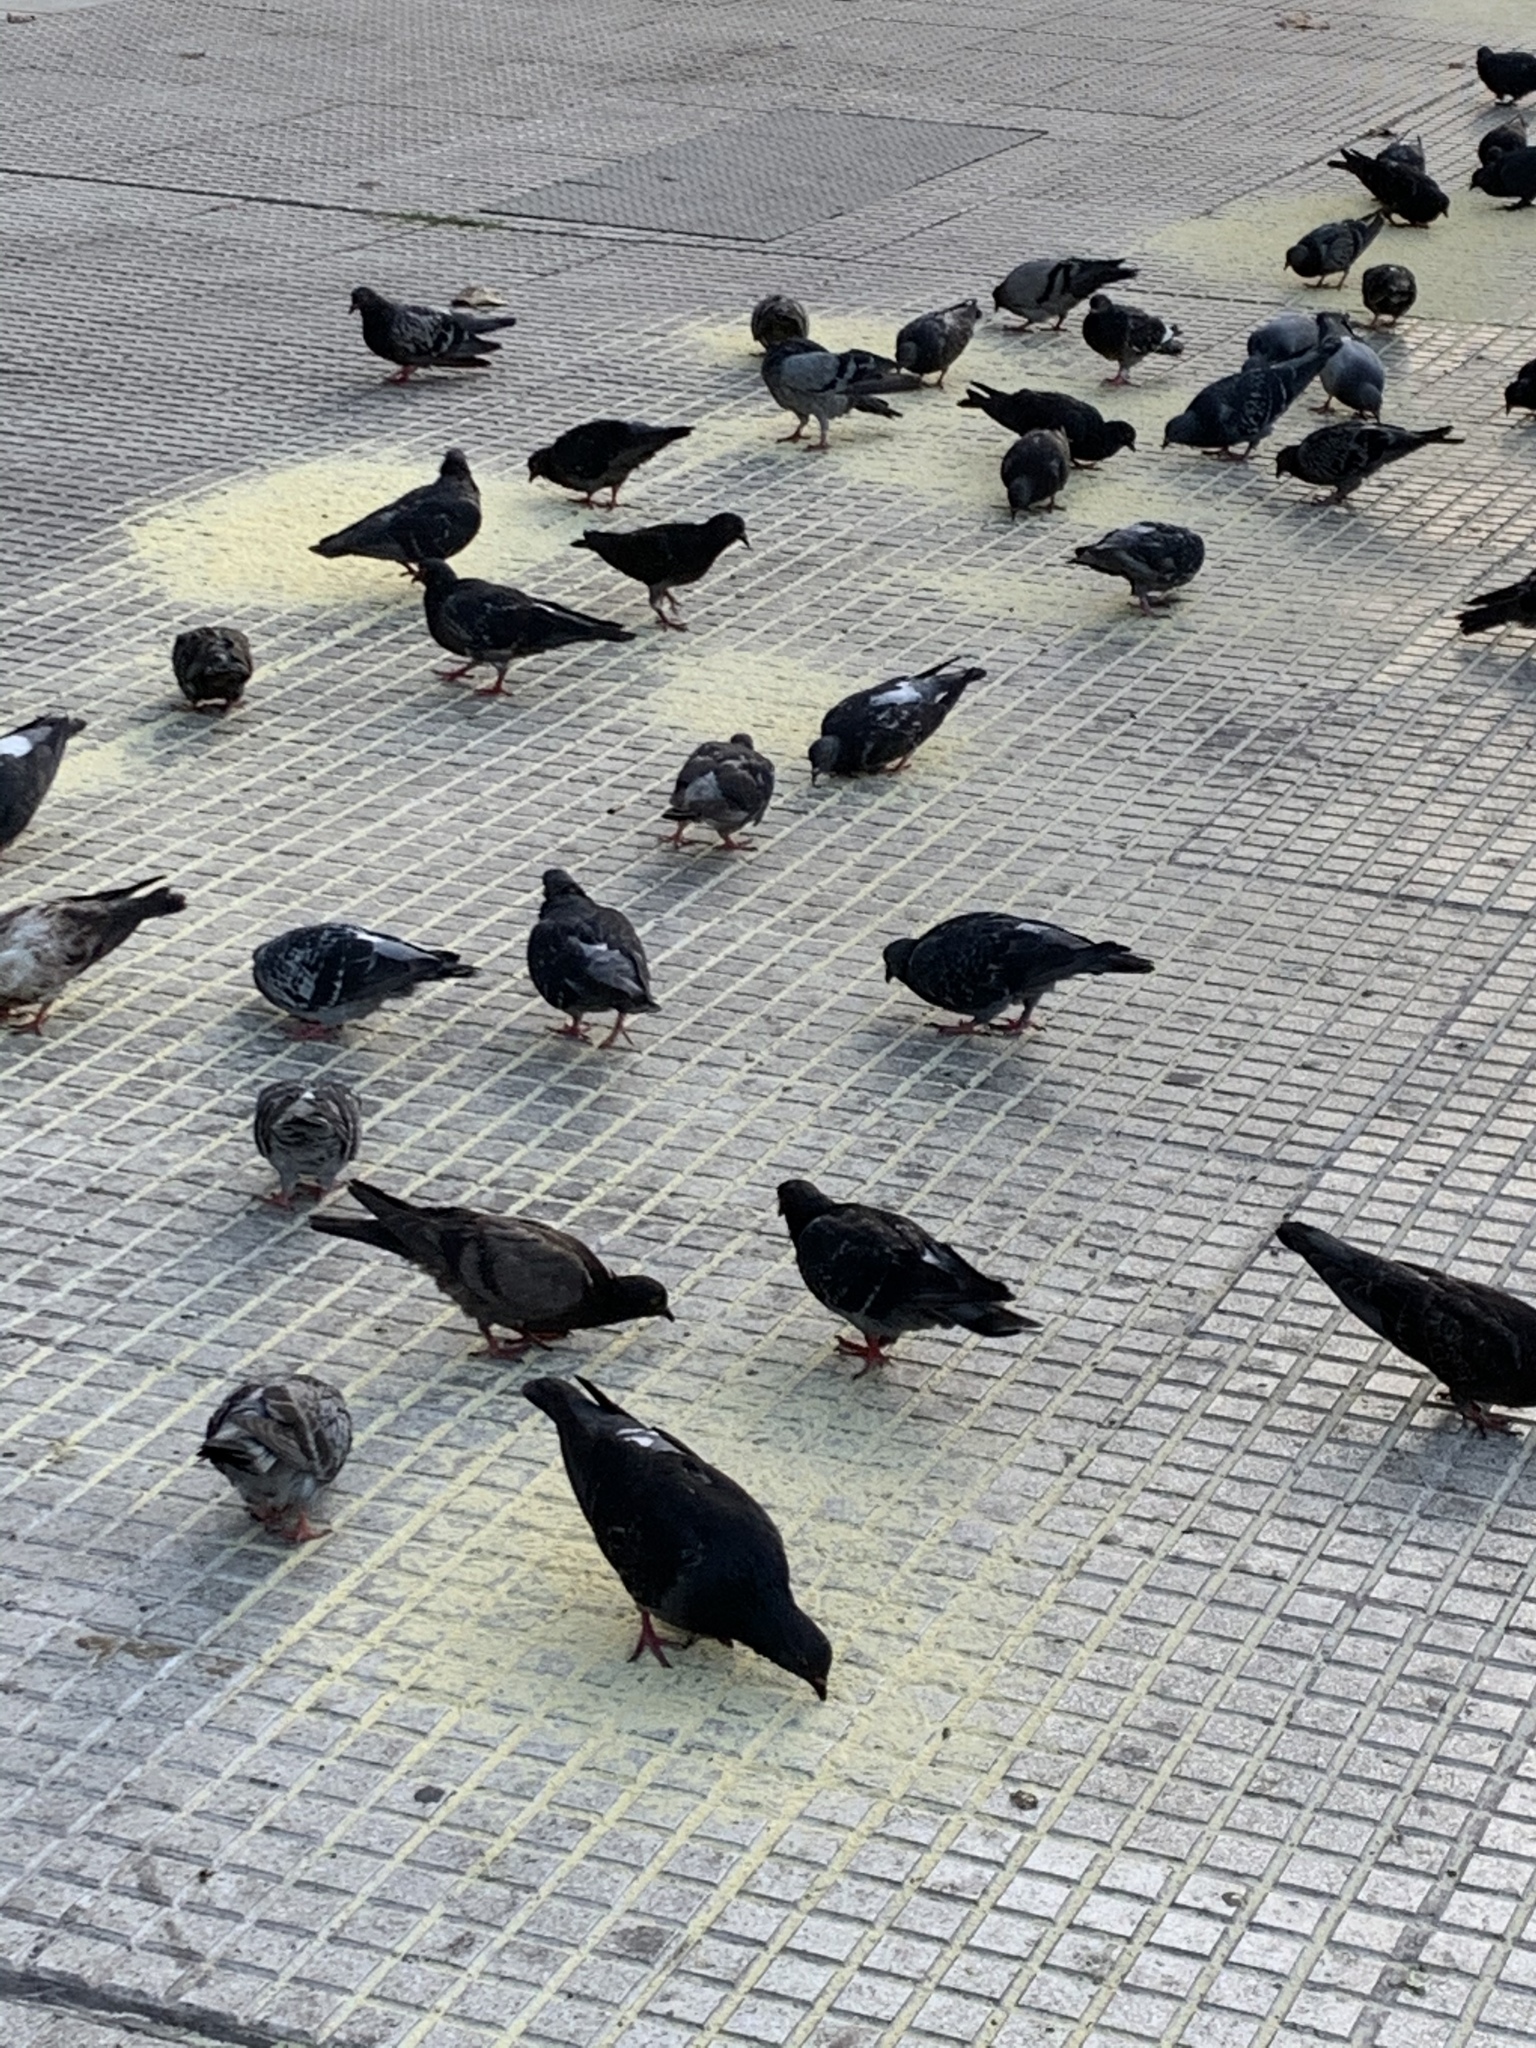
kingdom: Animalia
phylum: Chordata
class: Aves
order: Columbiformes
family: Columbidae
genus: Columba
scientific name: Columba livia
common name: Rock pigeon
